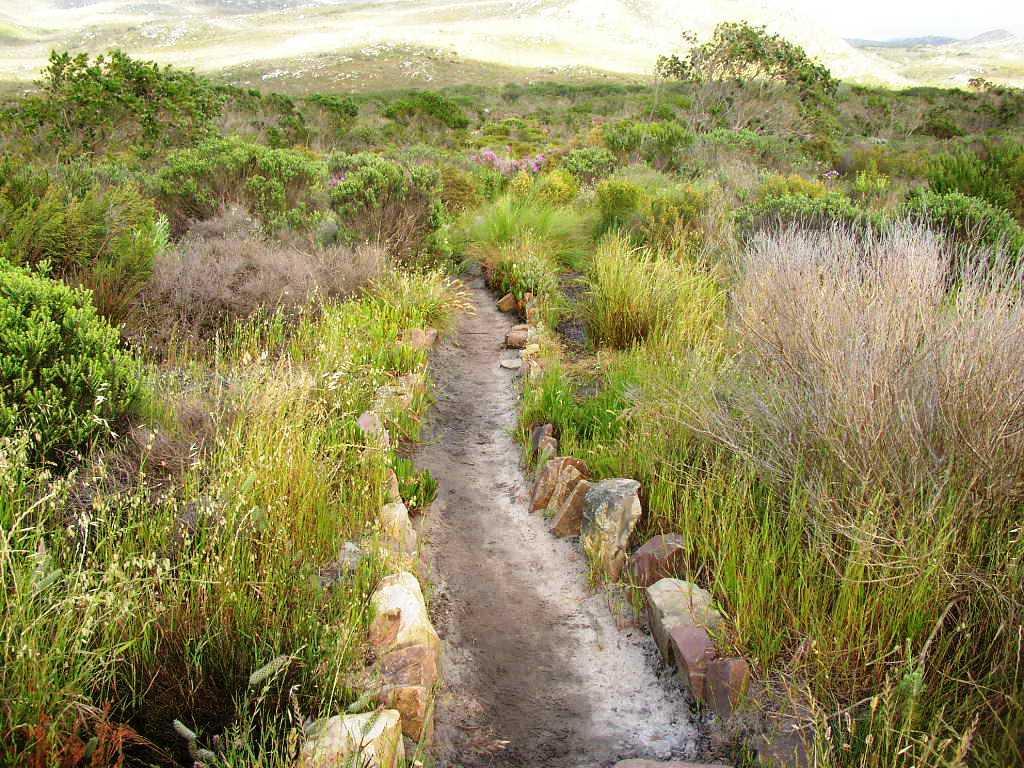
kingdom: Plantae
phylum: Tracheophyta
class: Liliopsida
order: Poales
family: Poaceae
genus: Briza
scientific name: Briza maxima
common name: Big quakinggrass
